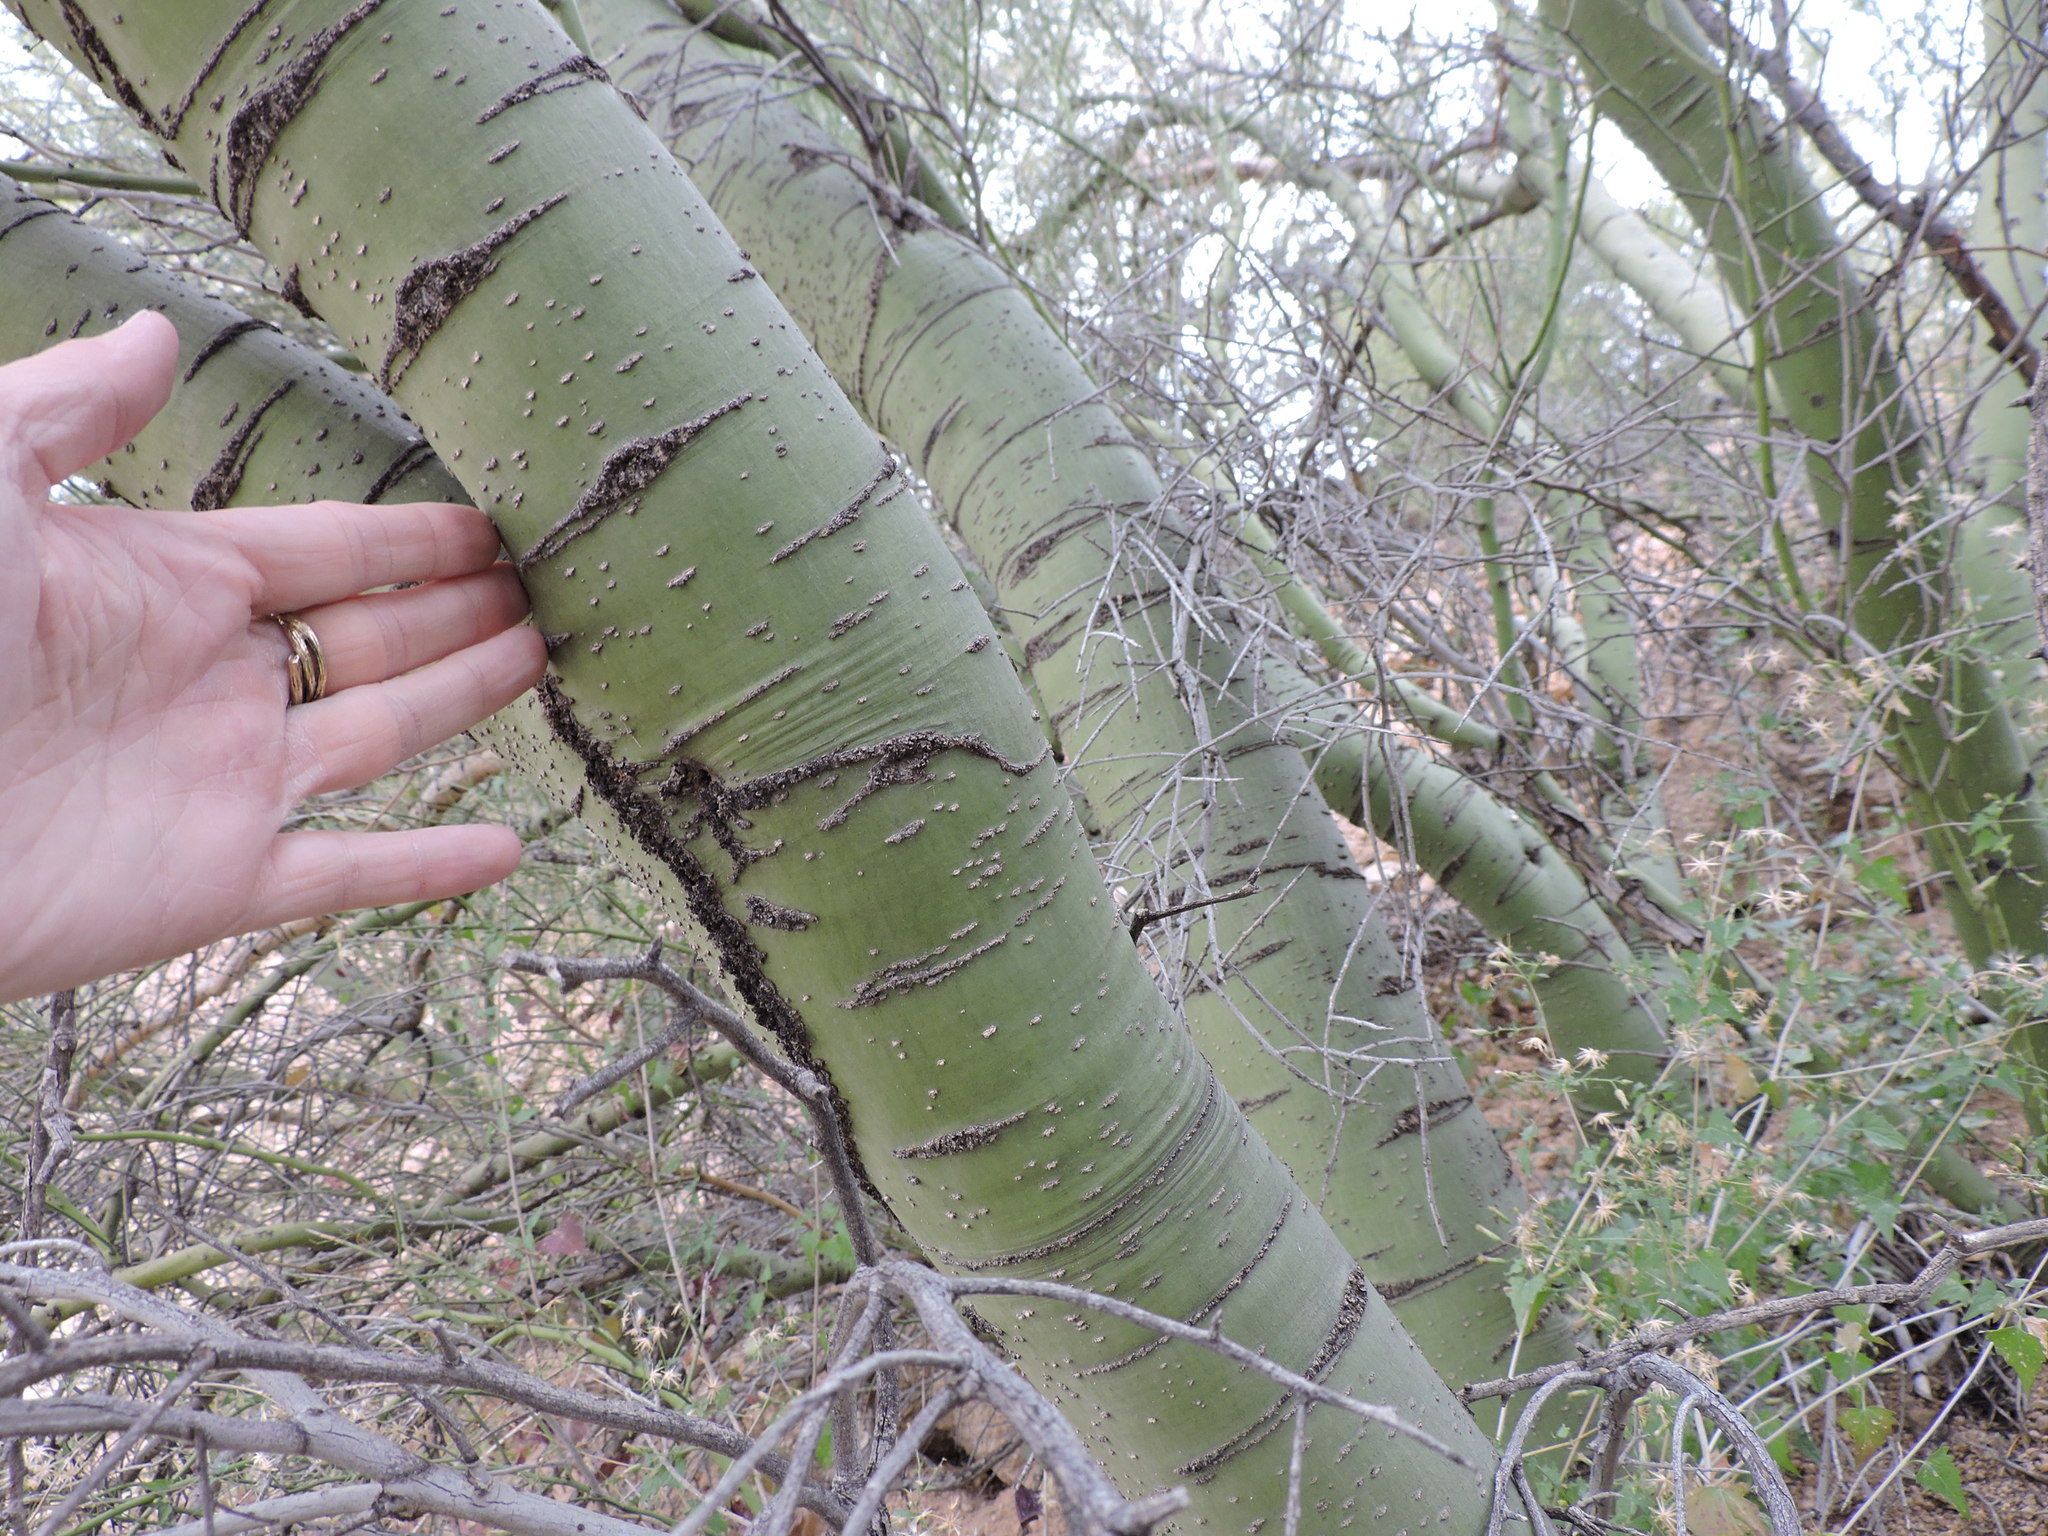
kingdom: Plantae
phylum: Tracheophyta
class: Magnoliopsida
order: Fabales
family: Fabaceae
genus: Parkinsonia
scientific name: Parkinsonia microphylla
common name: Yellow paloverde
